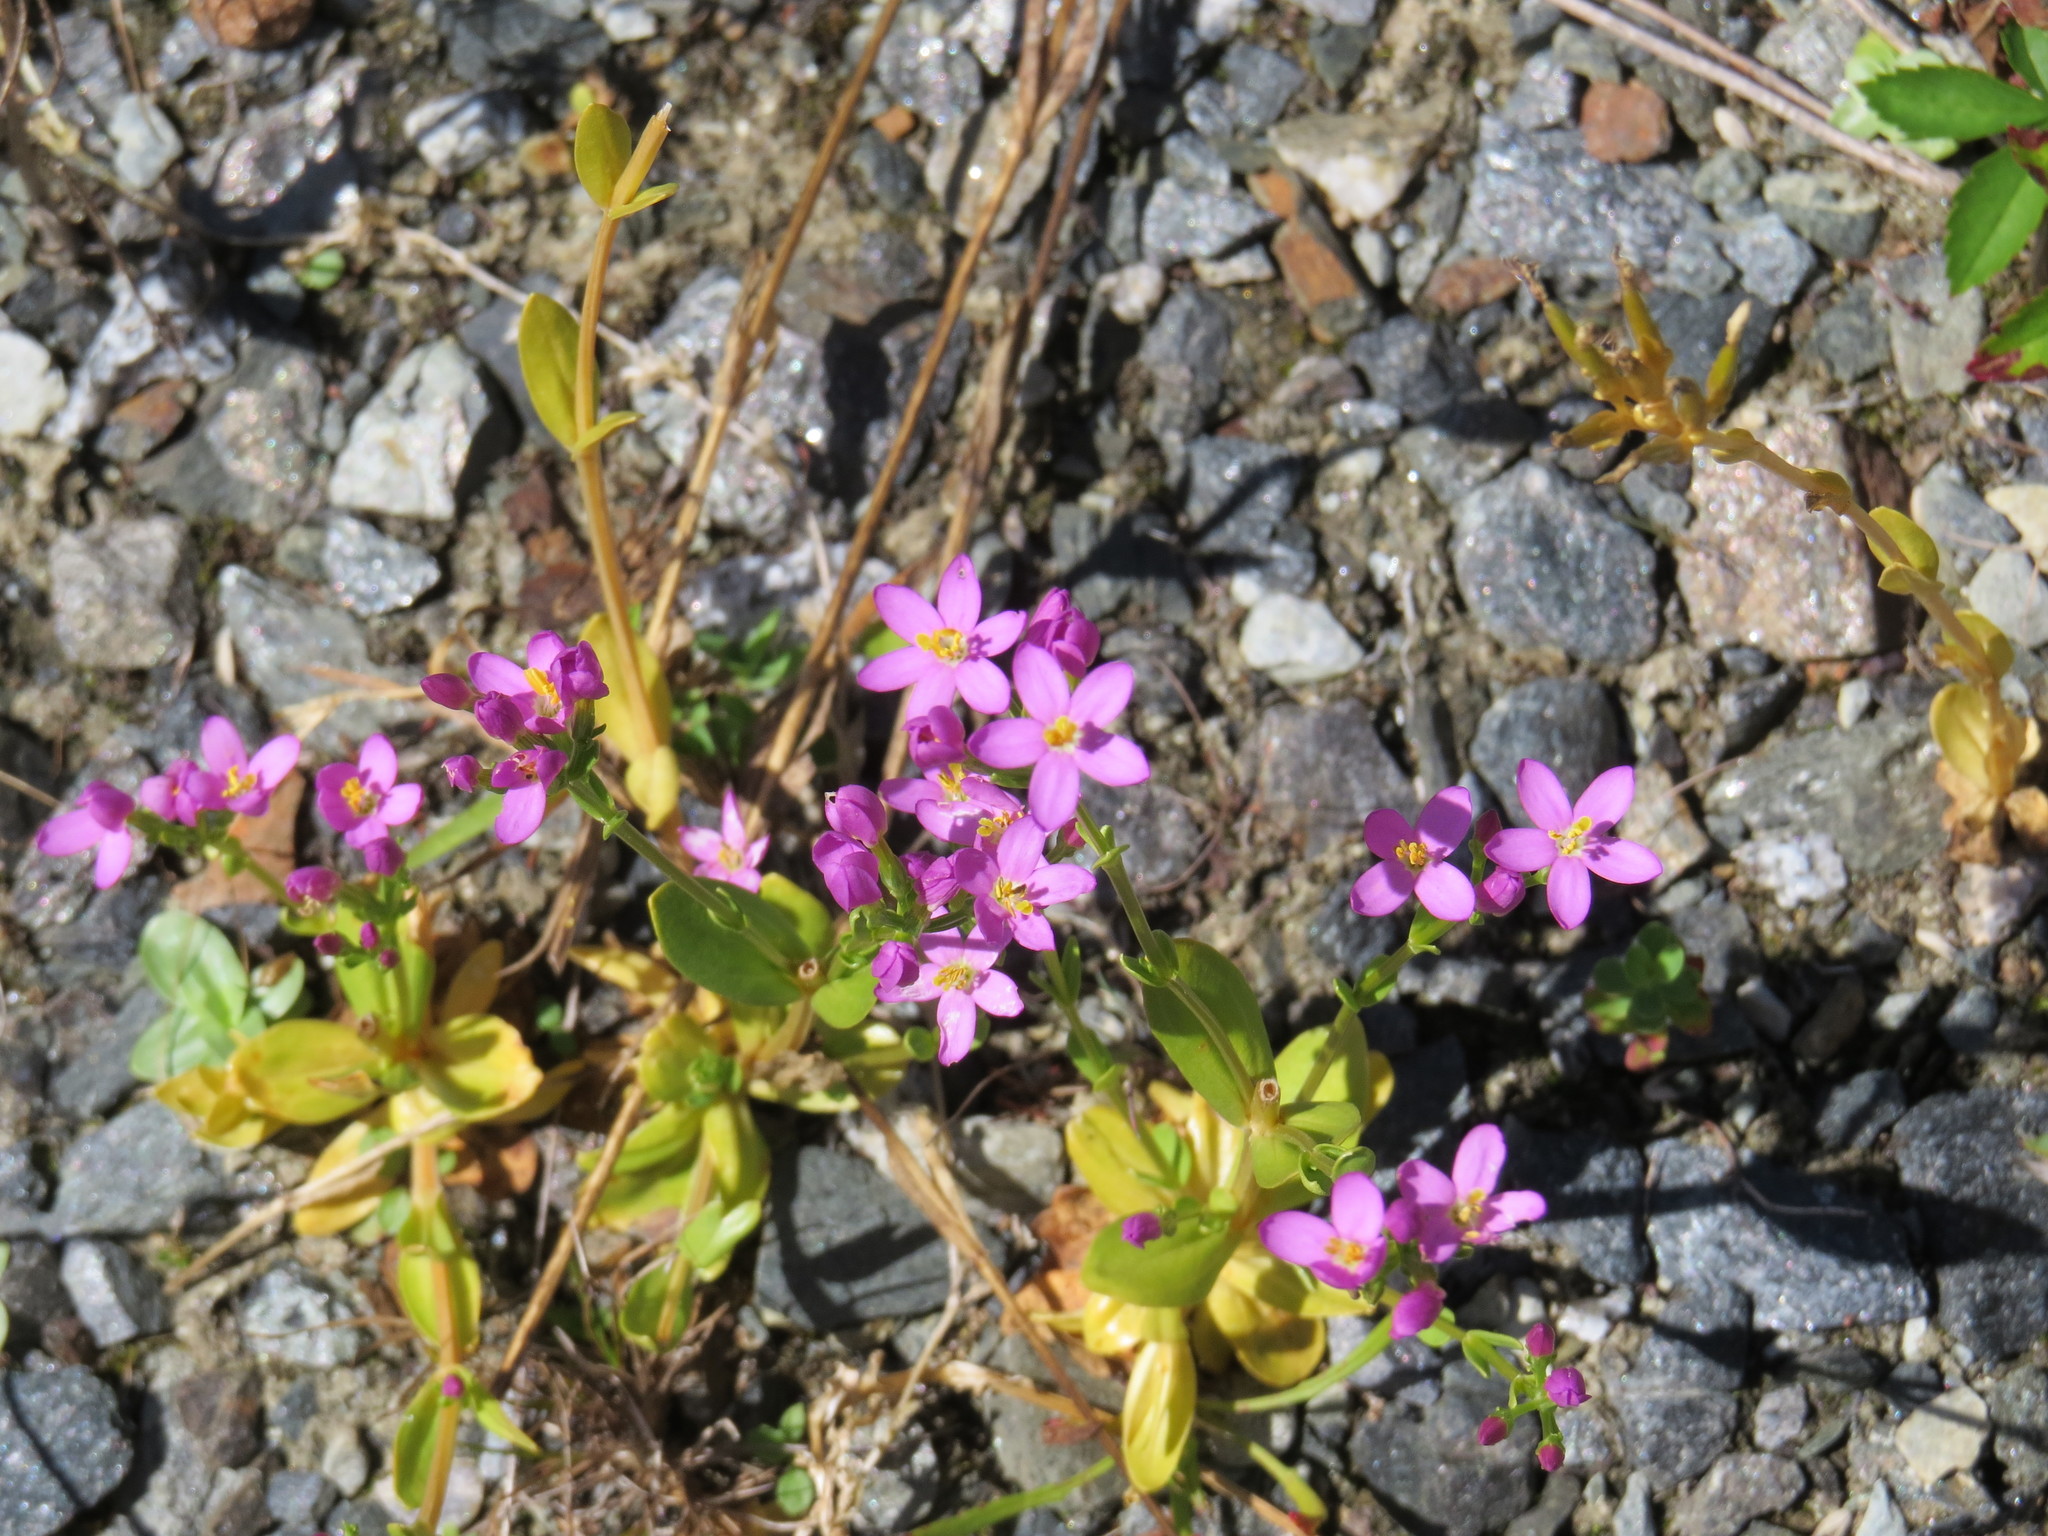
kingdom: Plantae
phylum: Tracheophyta
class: Magnoliopsida
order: Gentianales
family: Gentianaceae
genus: Centaurium
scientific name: Centaurium erythraea
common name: Common centaury
